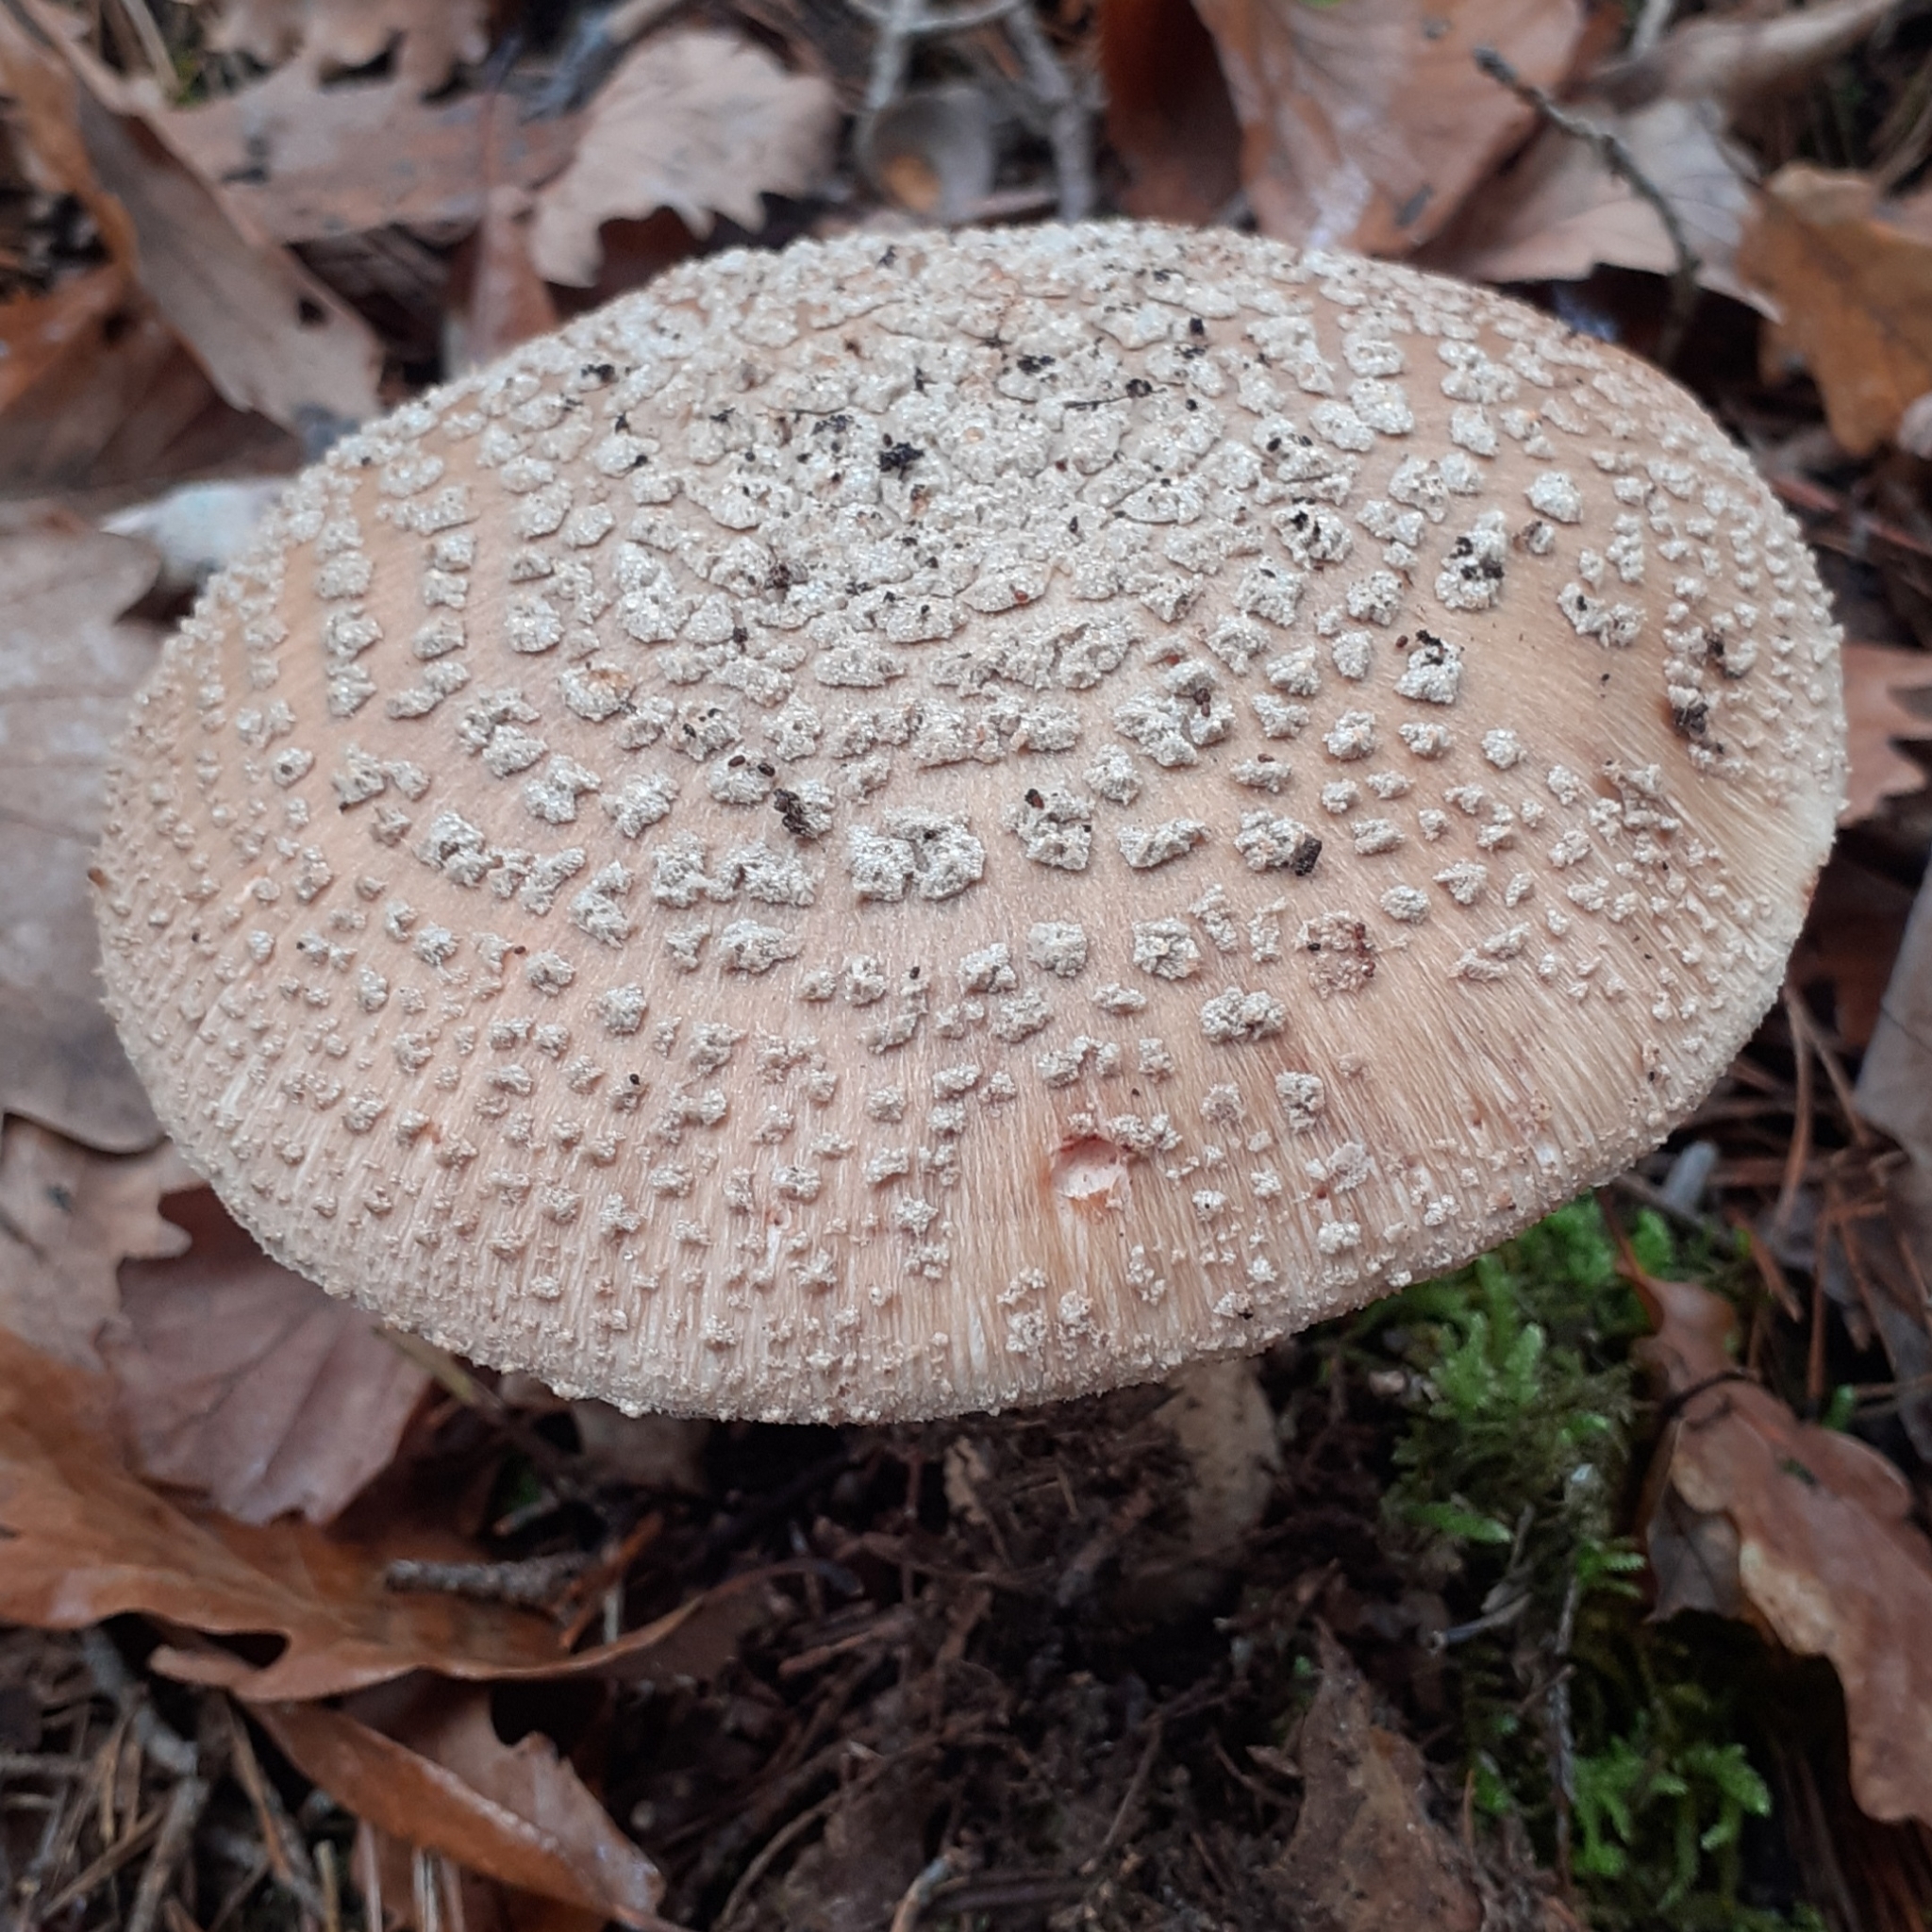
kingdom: Fungi
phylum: Basidiomycota
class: Agaricomycetes
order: Agaricales
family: Amanitaceae
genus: Amanita
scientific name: Amanita rubescens
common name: Blusher
